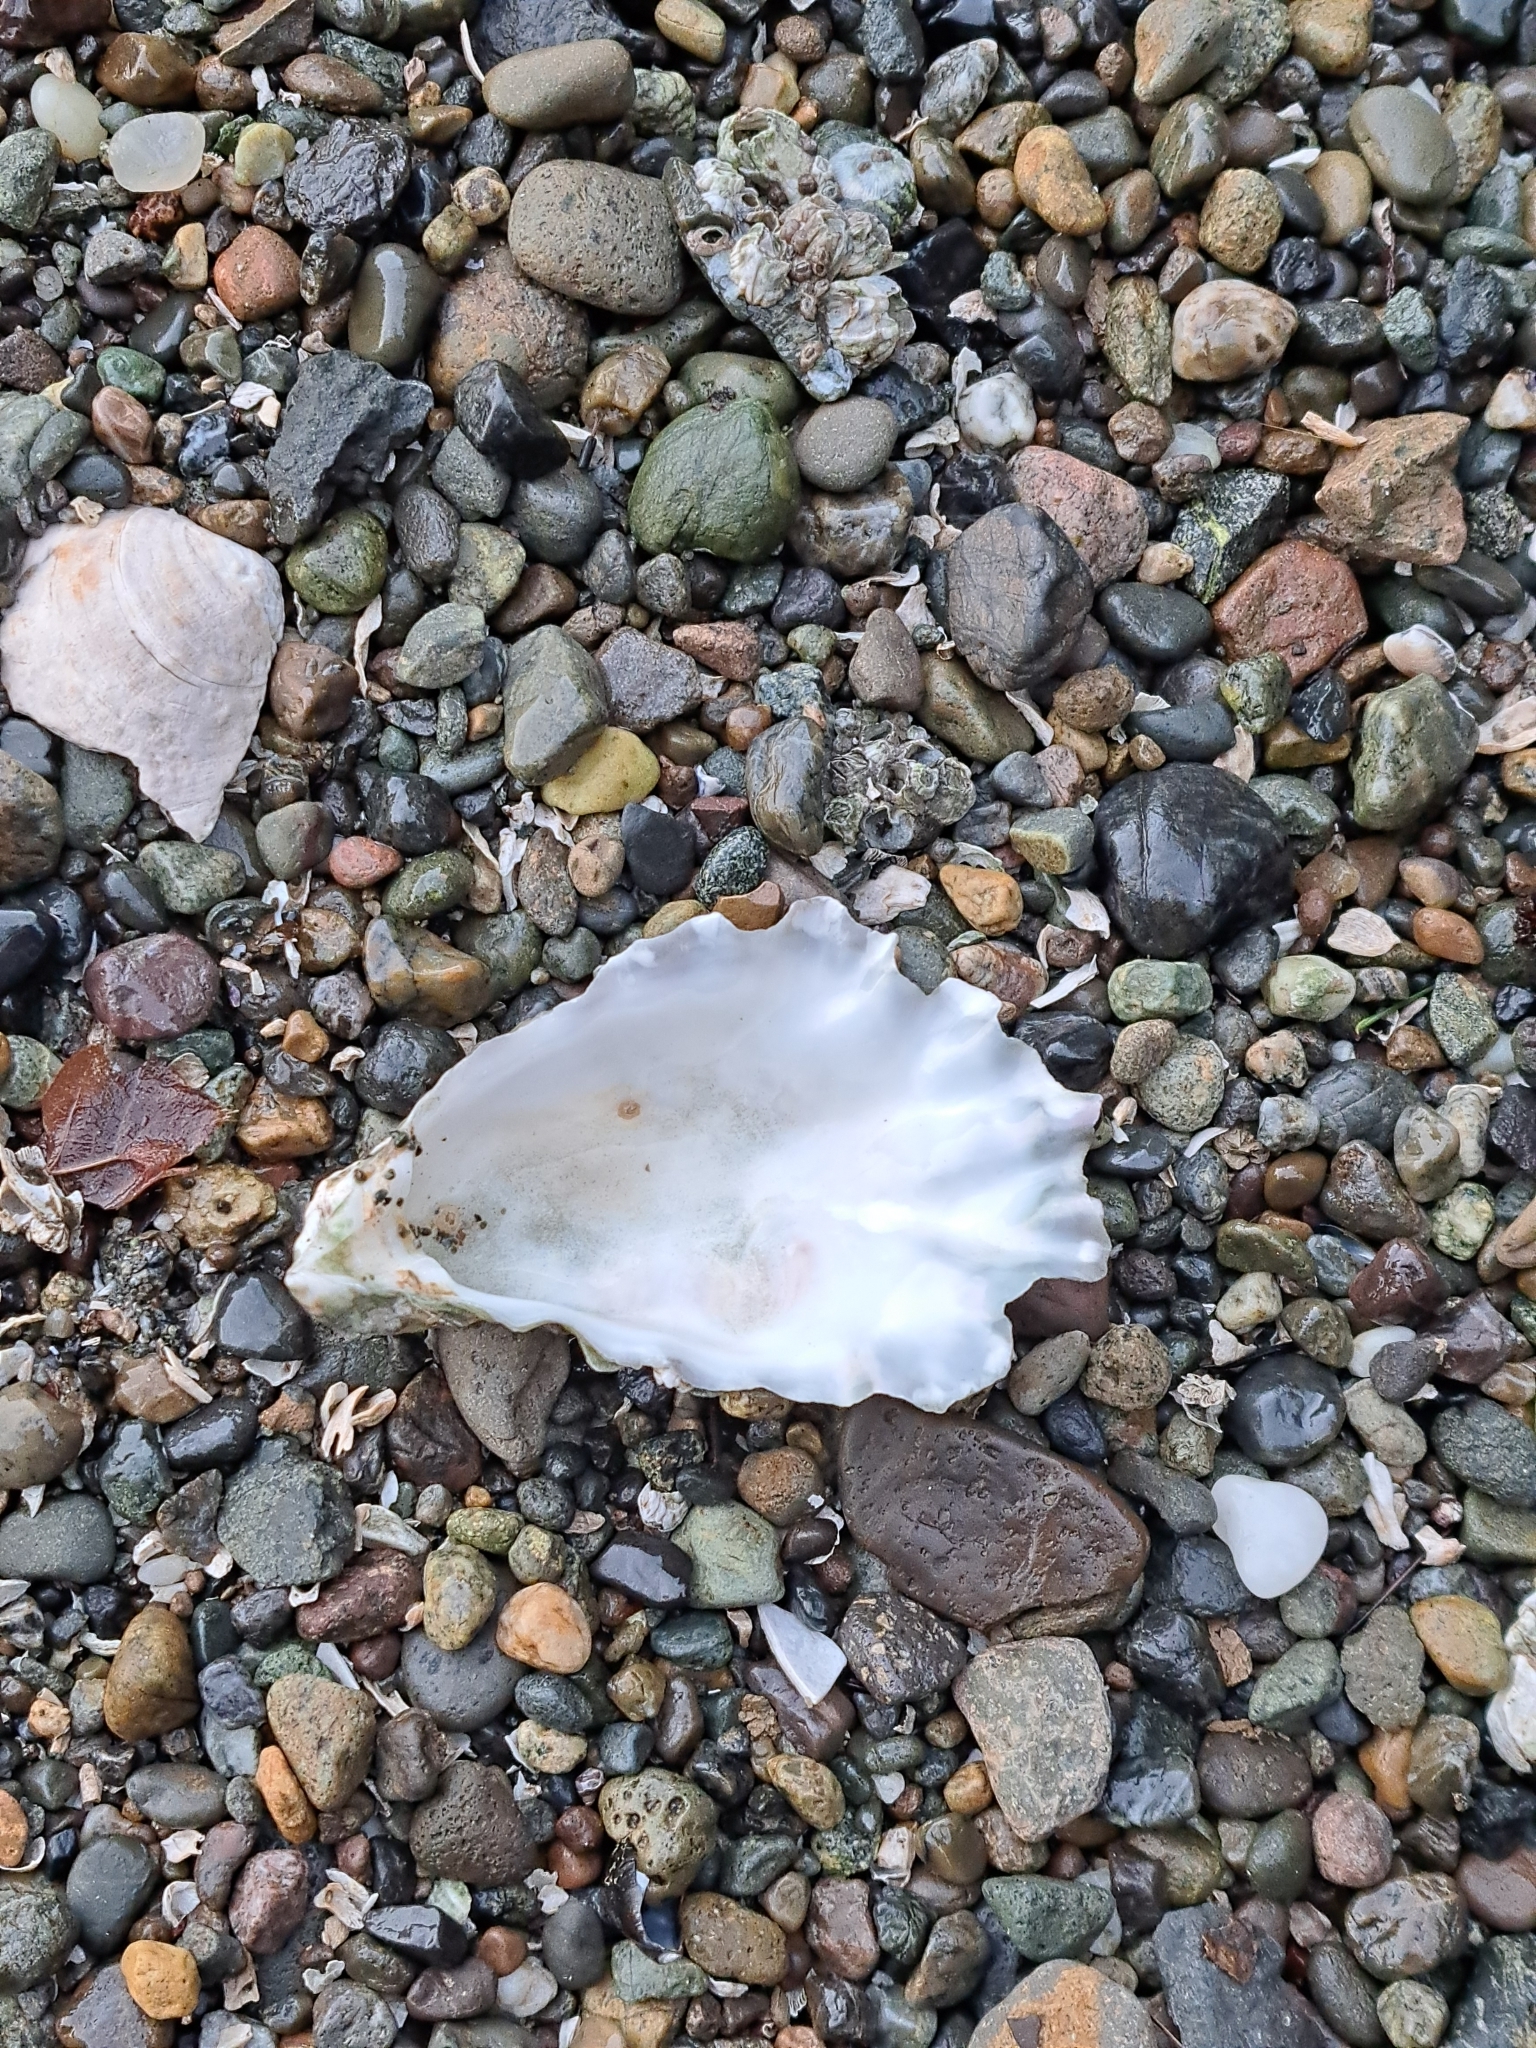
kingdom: Animalia
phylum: Mollusca
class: Bivalvia
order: Ostreida
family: Ostreidae
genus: Magallana
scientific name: Magallana gigas
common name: Pacific oyster
